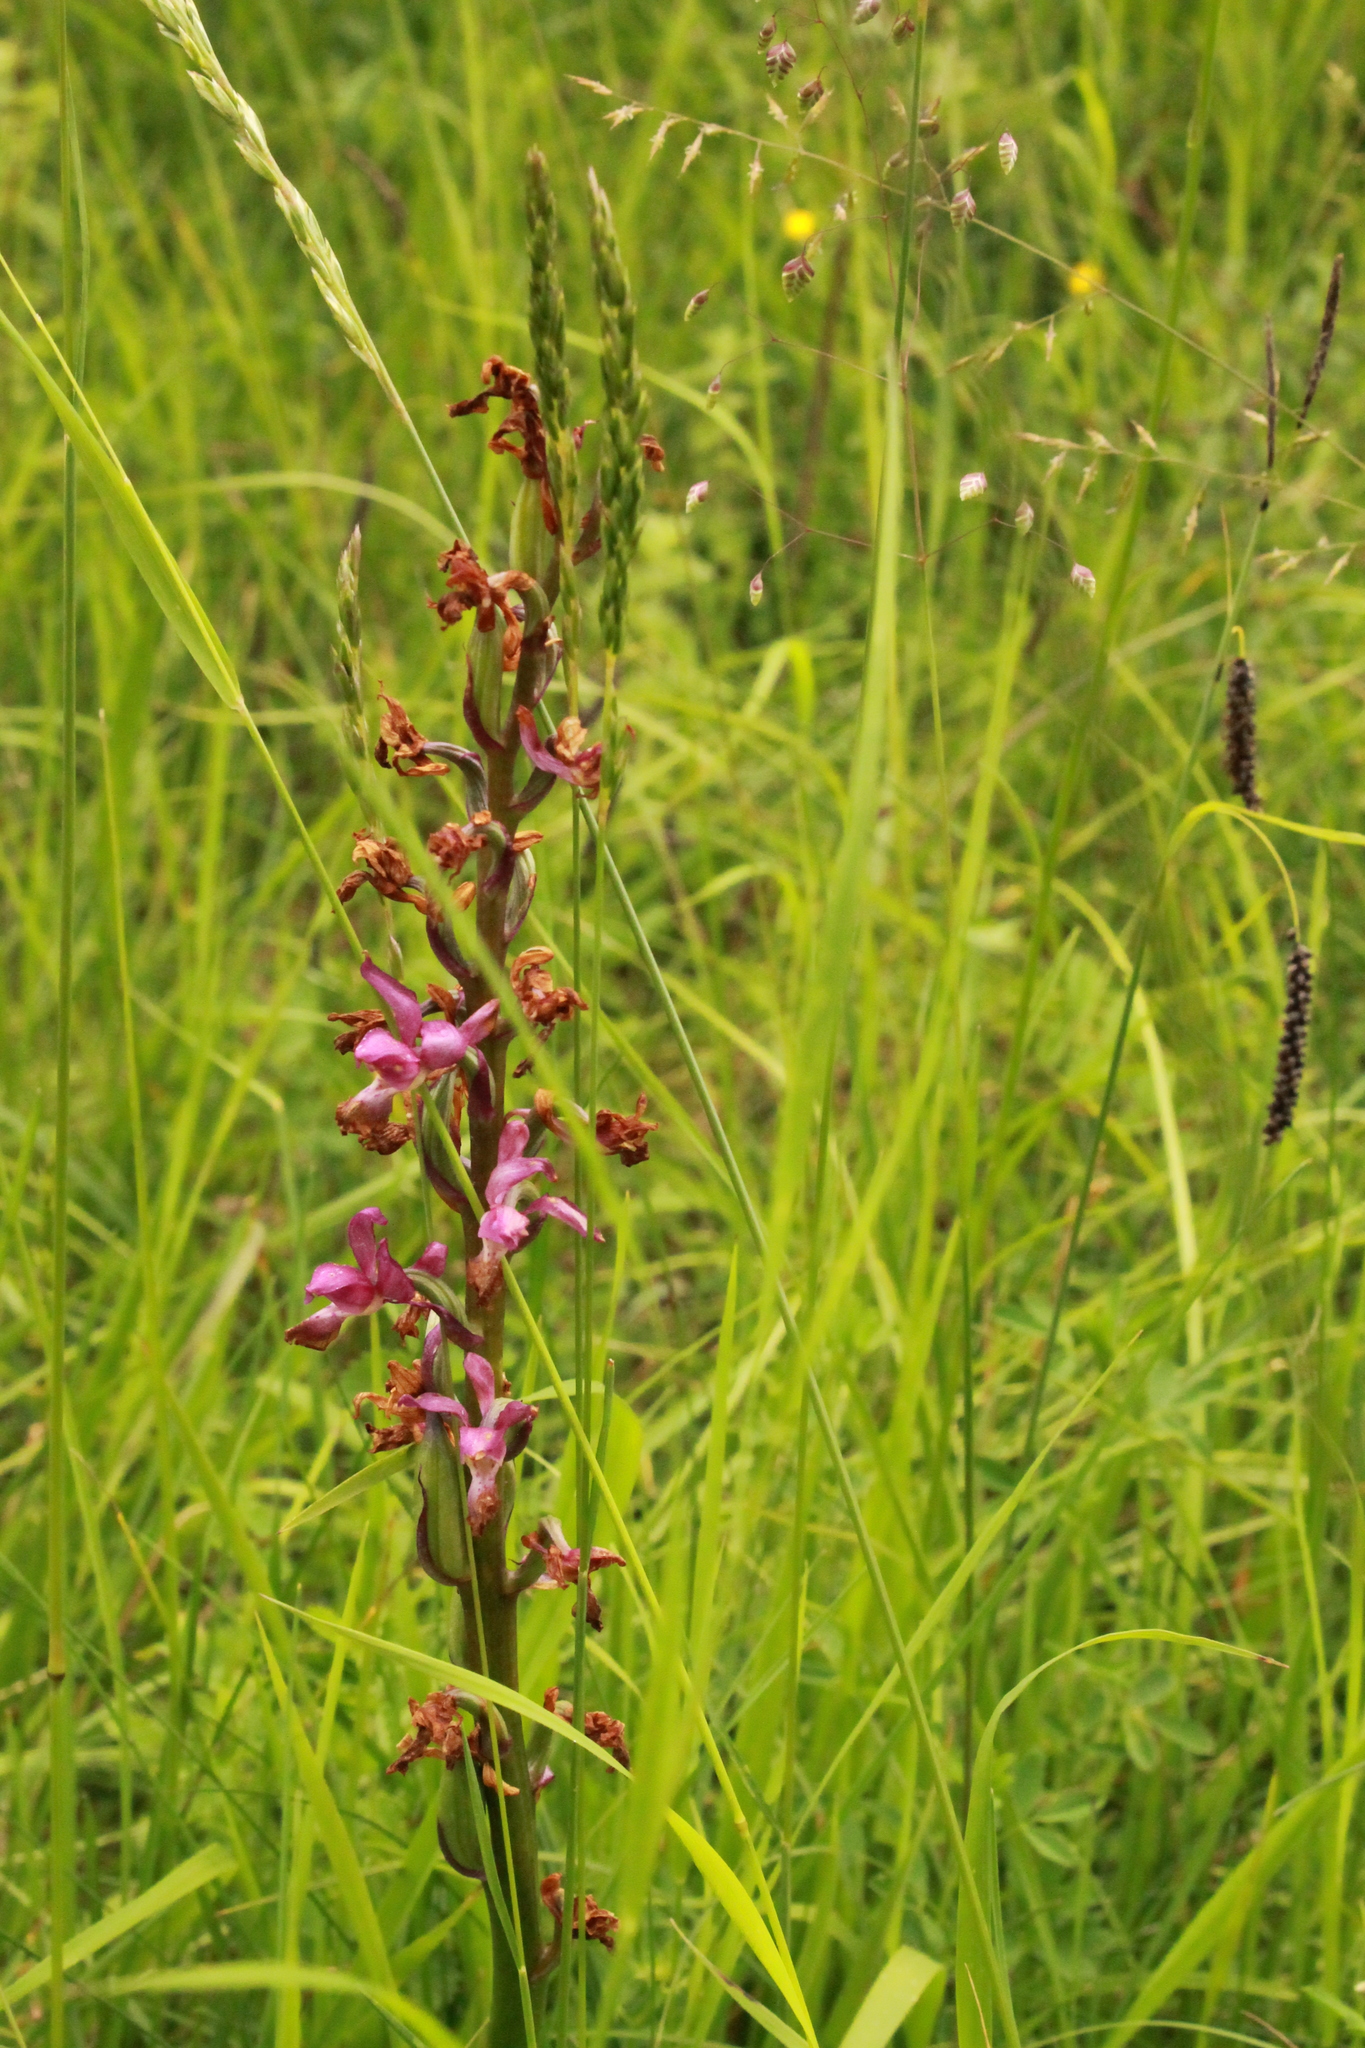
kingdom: Plantae
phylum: Tracheophyta
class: Liliopsida
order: Asparagales
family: Orchidaceae
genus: Orchis
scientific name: Orchis mascula
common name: Early-purple orchid
